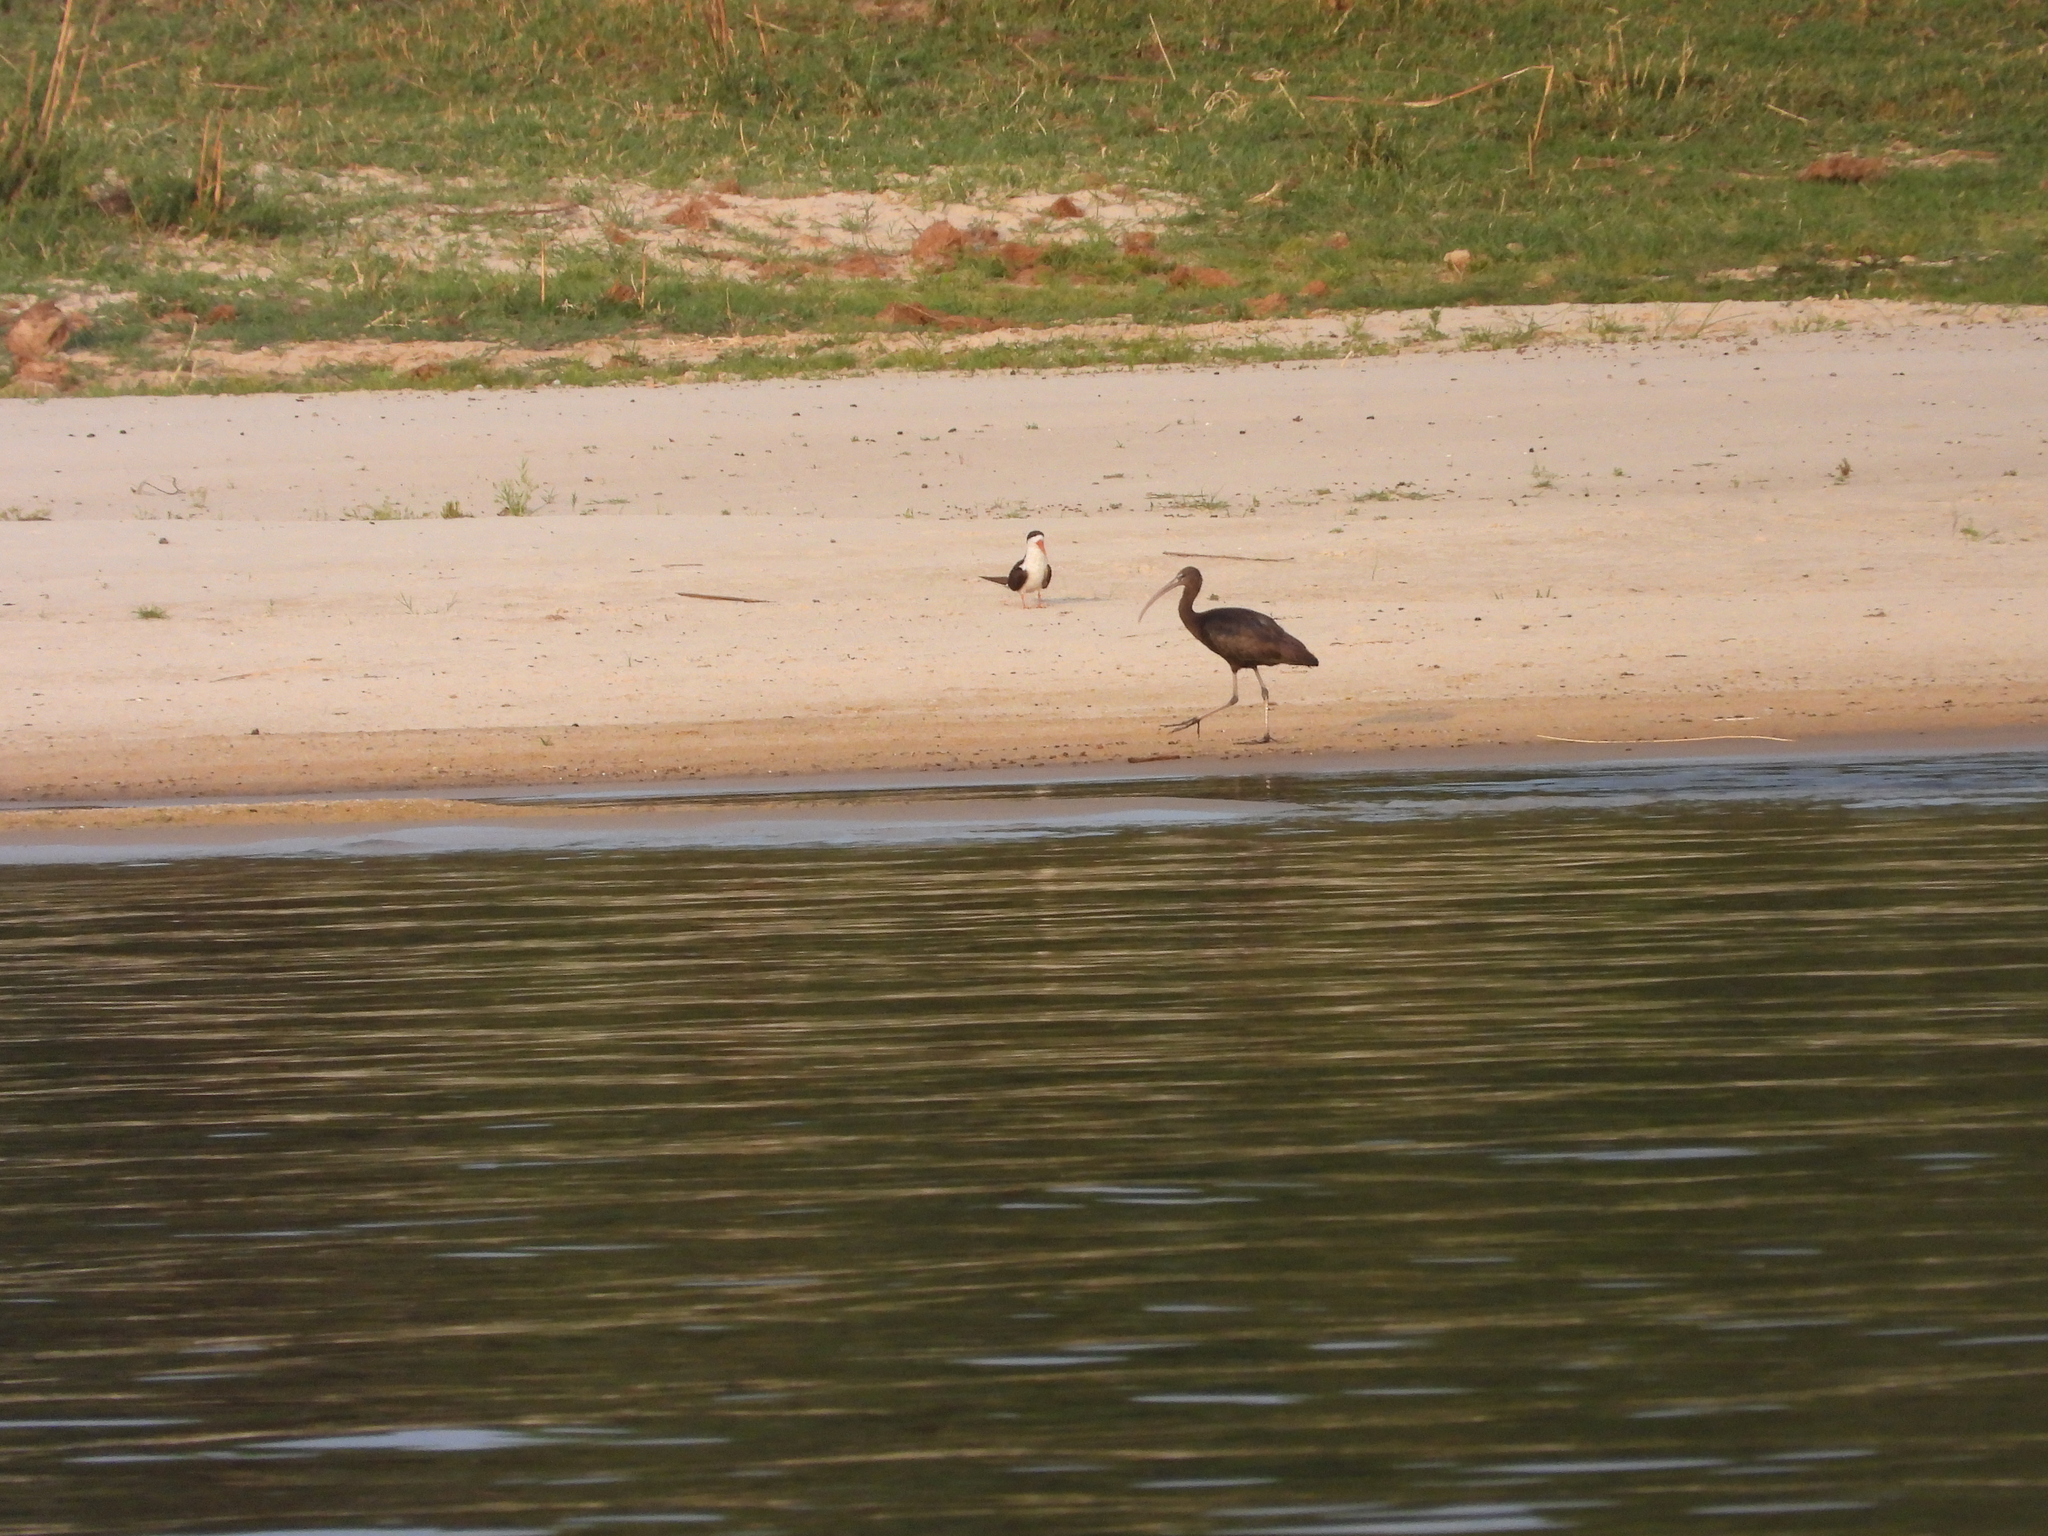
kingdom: Animalia
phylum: Chordata
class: Aves
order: Pelecaniformes
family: Threskiornithidae
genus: Plegadis
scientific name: Plegadis falcinellus
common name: Glossy ibis
